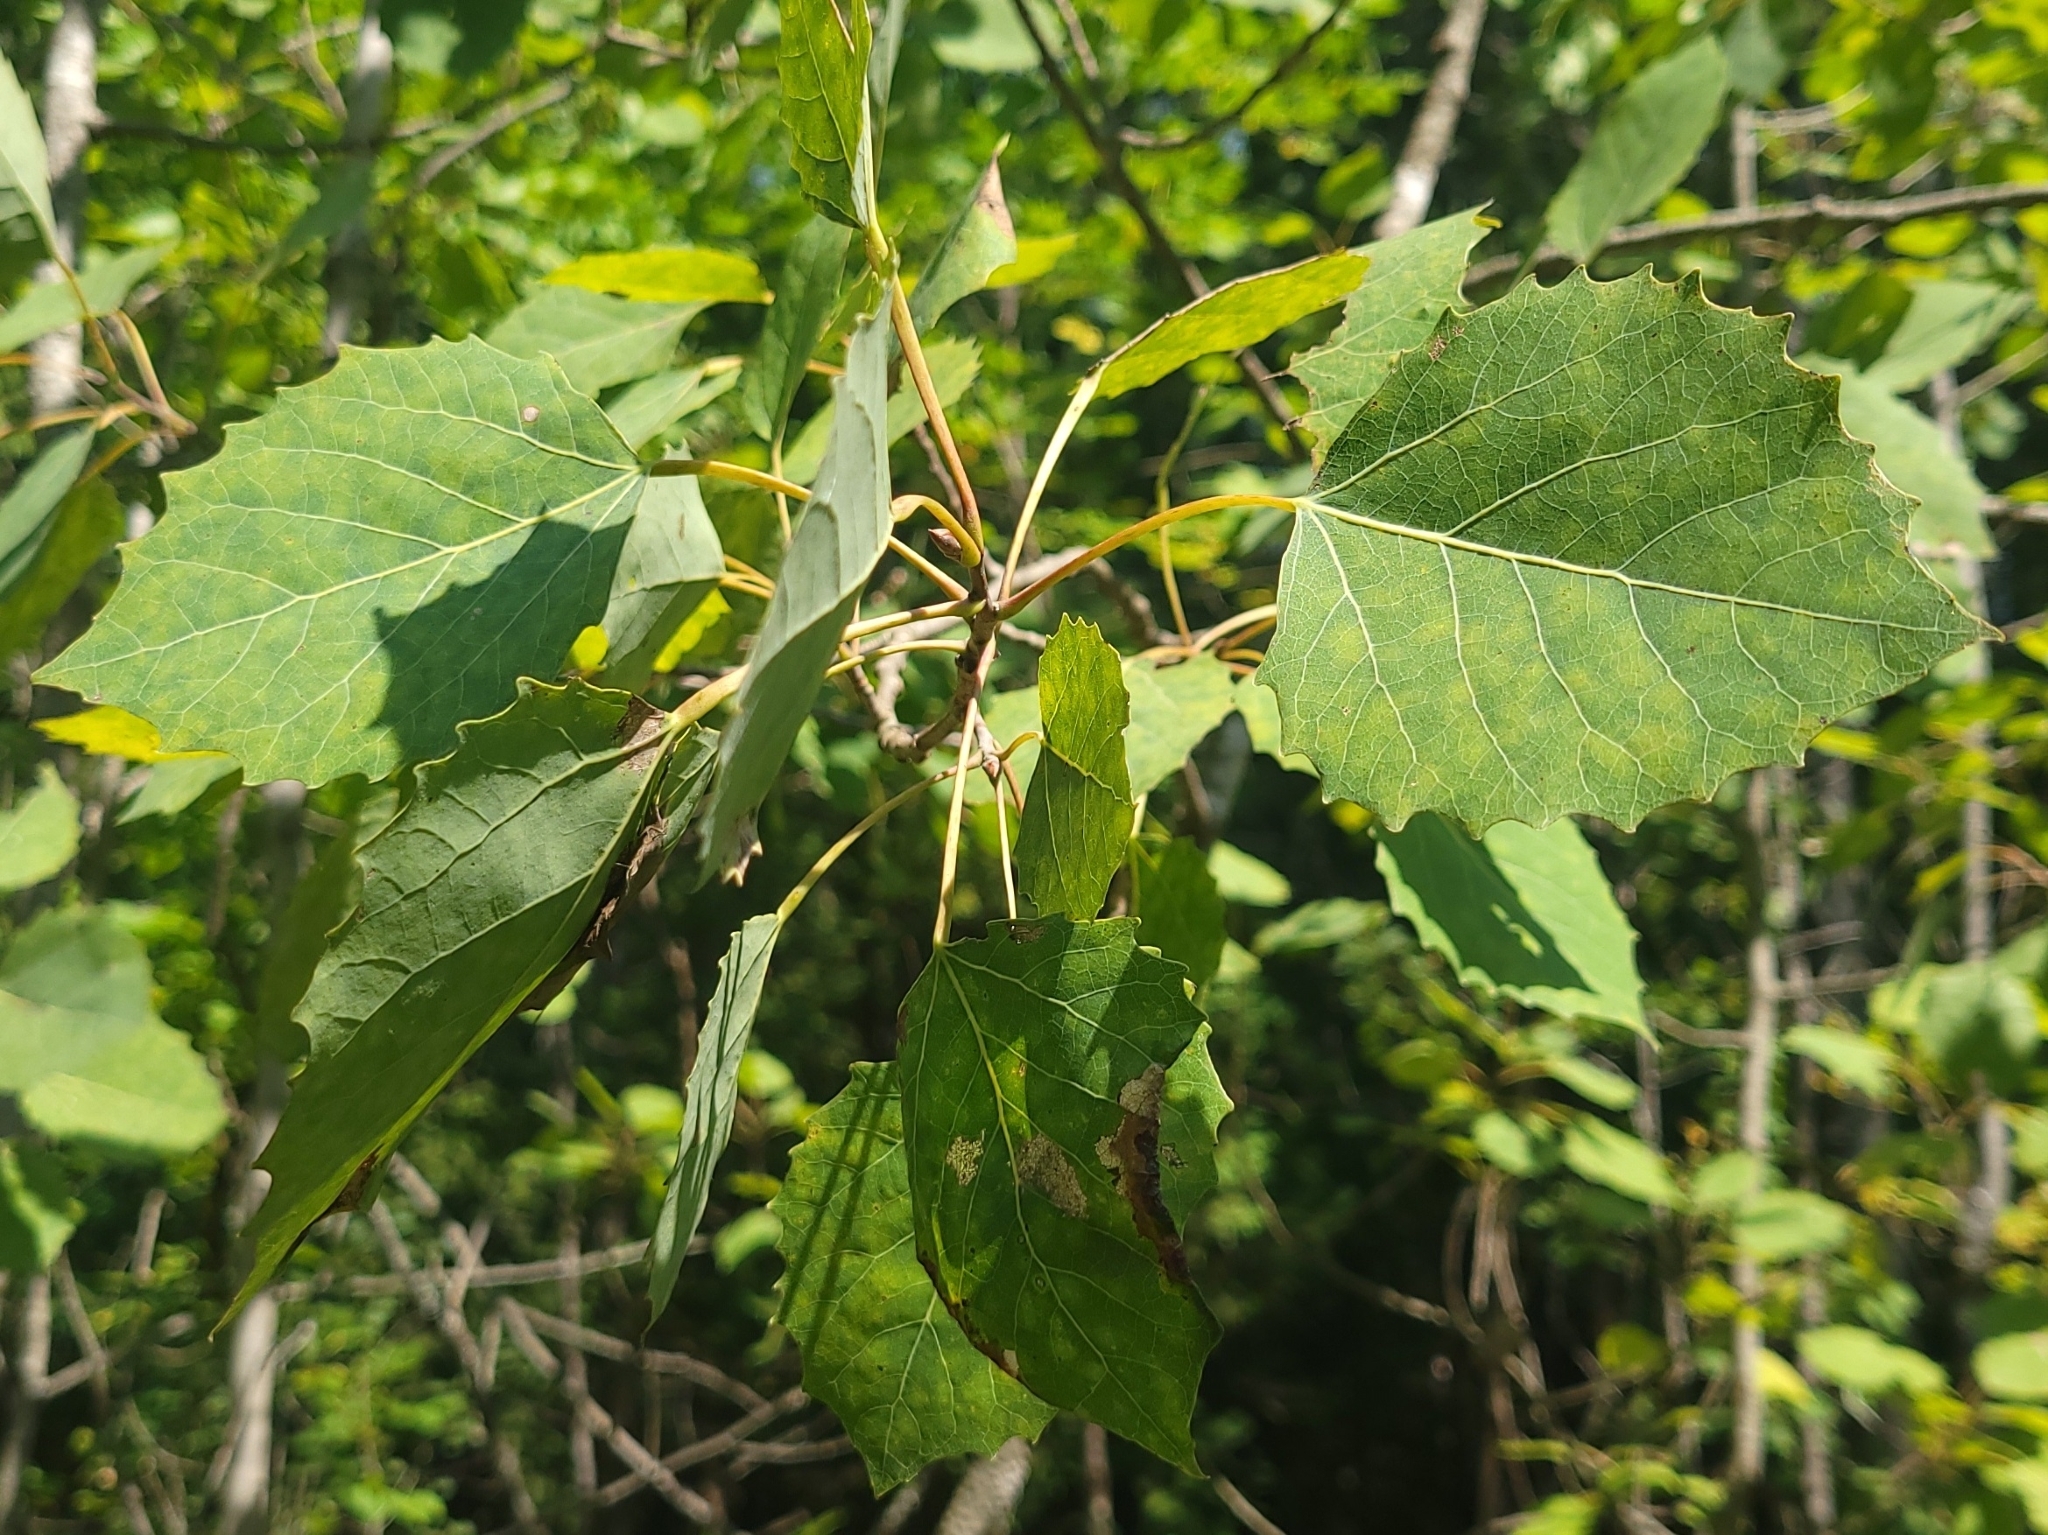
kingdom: Plantae
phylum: Tracheophyta
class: Magnoliopsida
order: Malpighiales
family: Salicaceae
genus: Populus
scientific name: Populus grandidentata
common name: Bigtooth aspen
